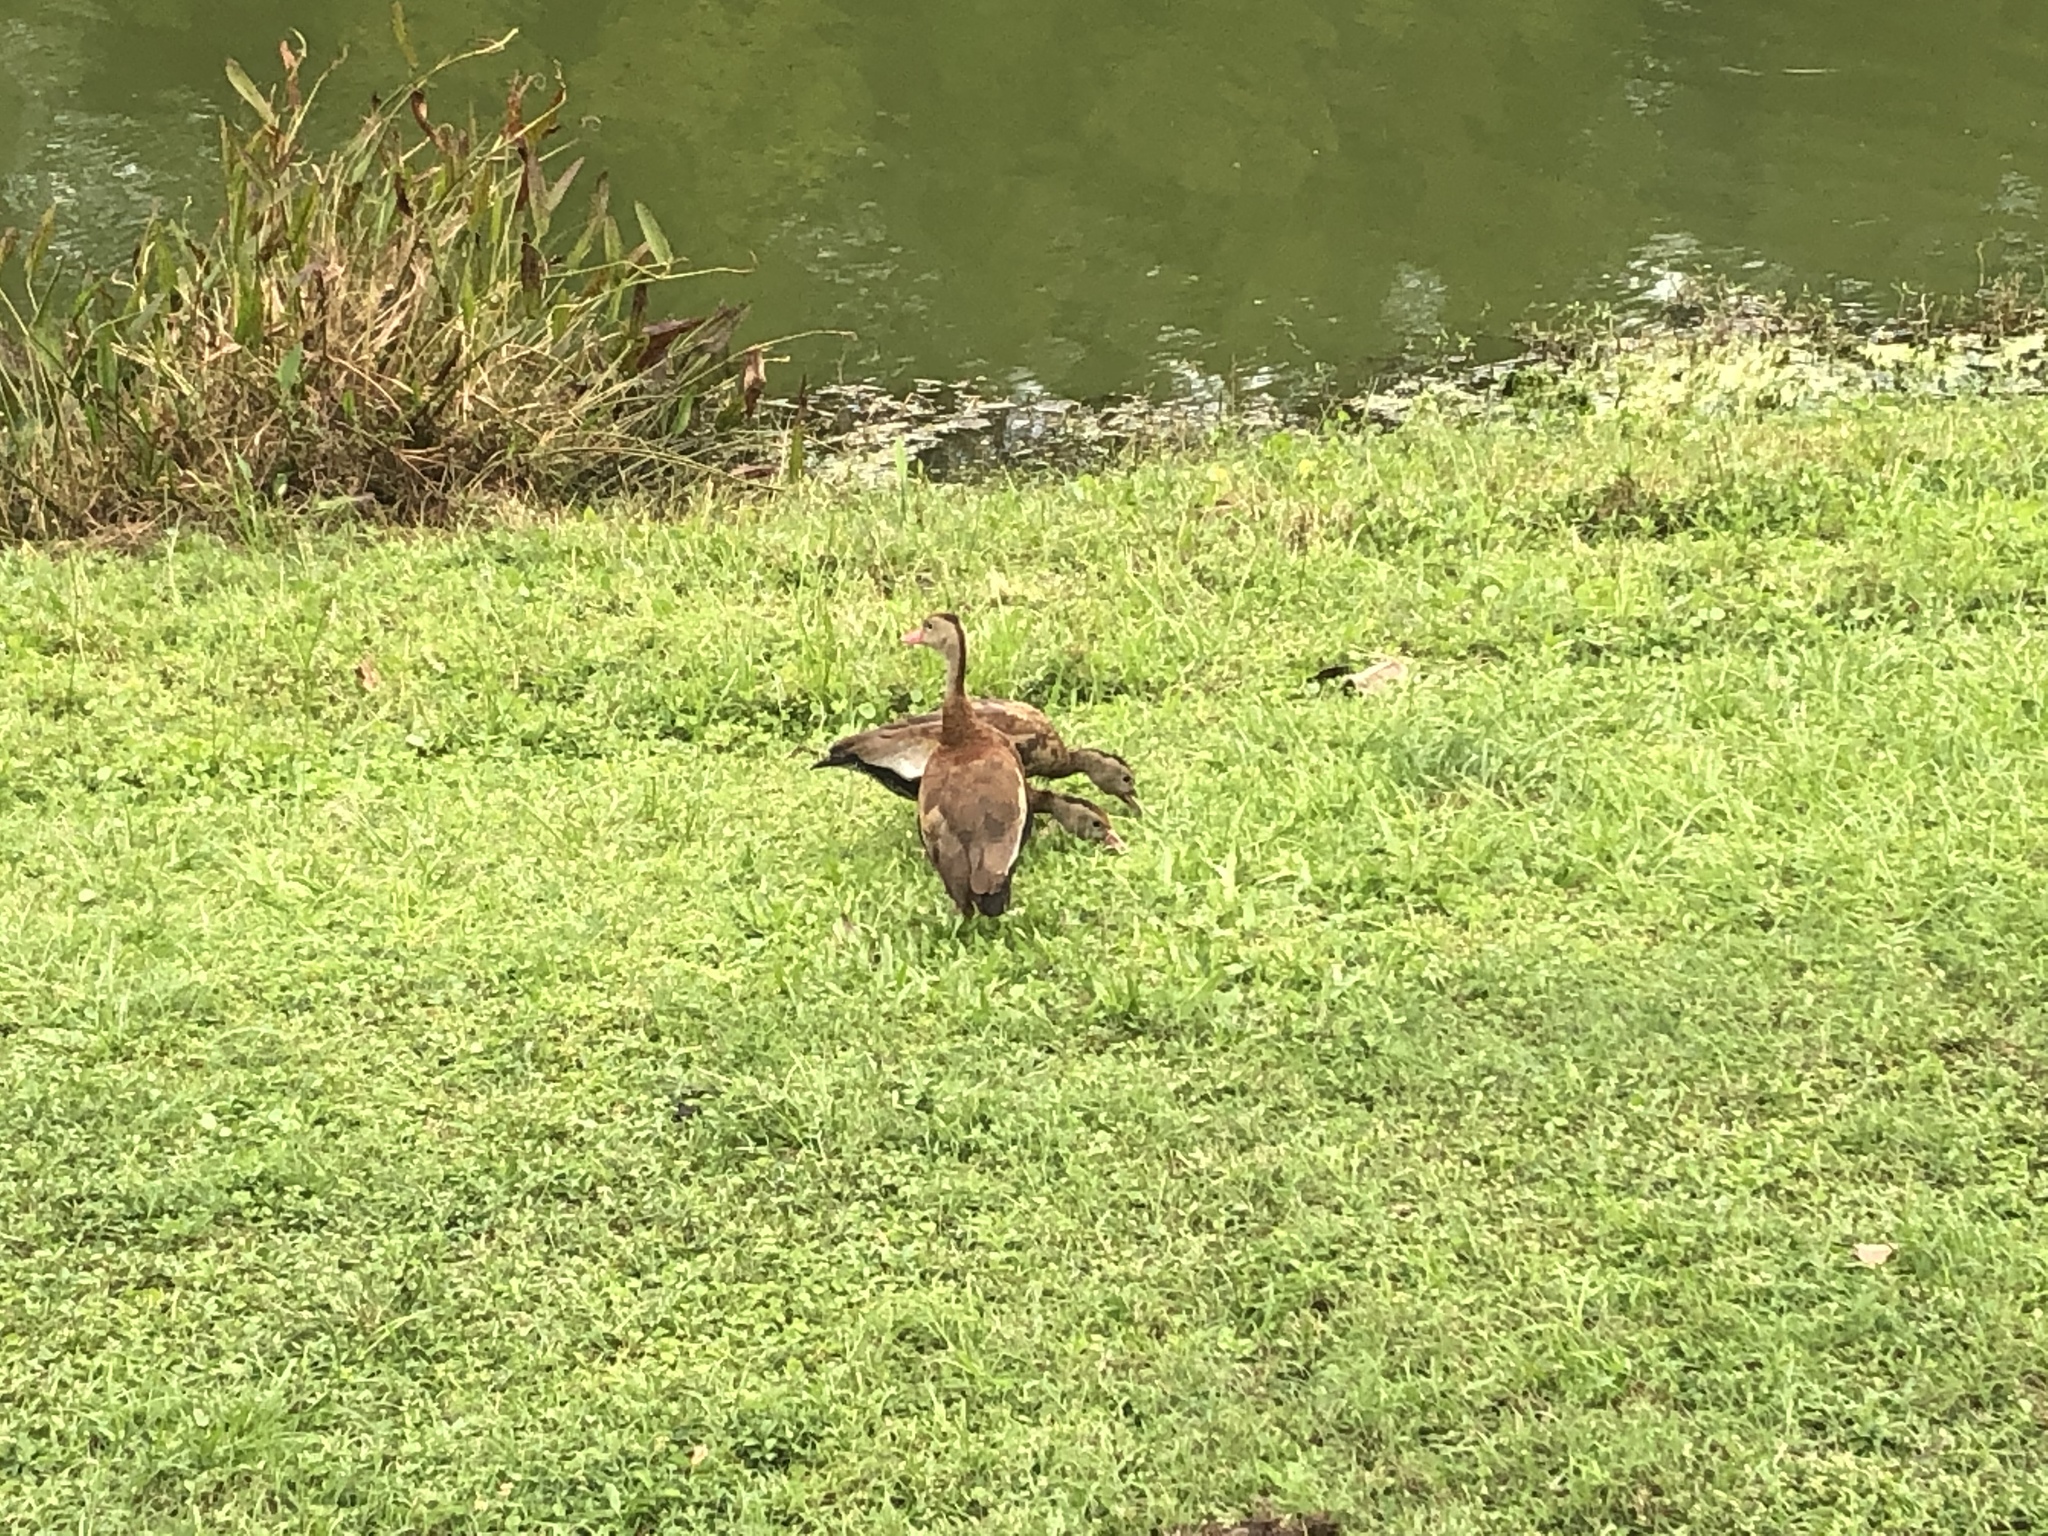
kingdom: Animalia
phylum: Chordata
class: Aves
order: Anseriformes
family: Anatidae
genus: Dendrocygna
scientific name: Dendrocygna autumnalis
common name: Black-bellied whistling duck
